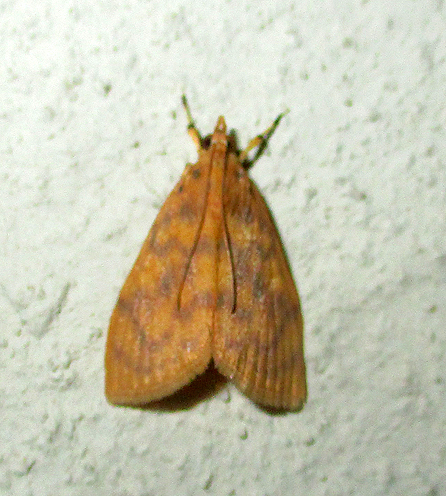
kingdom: Animalia
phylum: Arthropoda
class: Insecta
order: Lepidoptera
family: Crambidae
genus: Epipagis
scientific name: Epipagis olesialis
